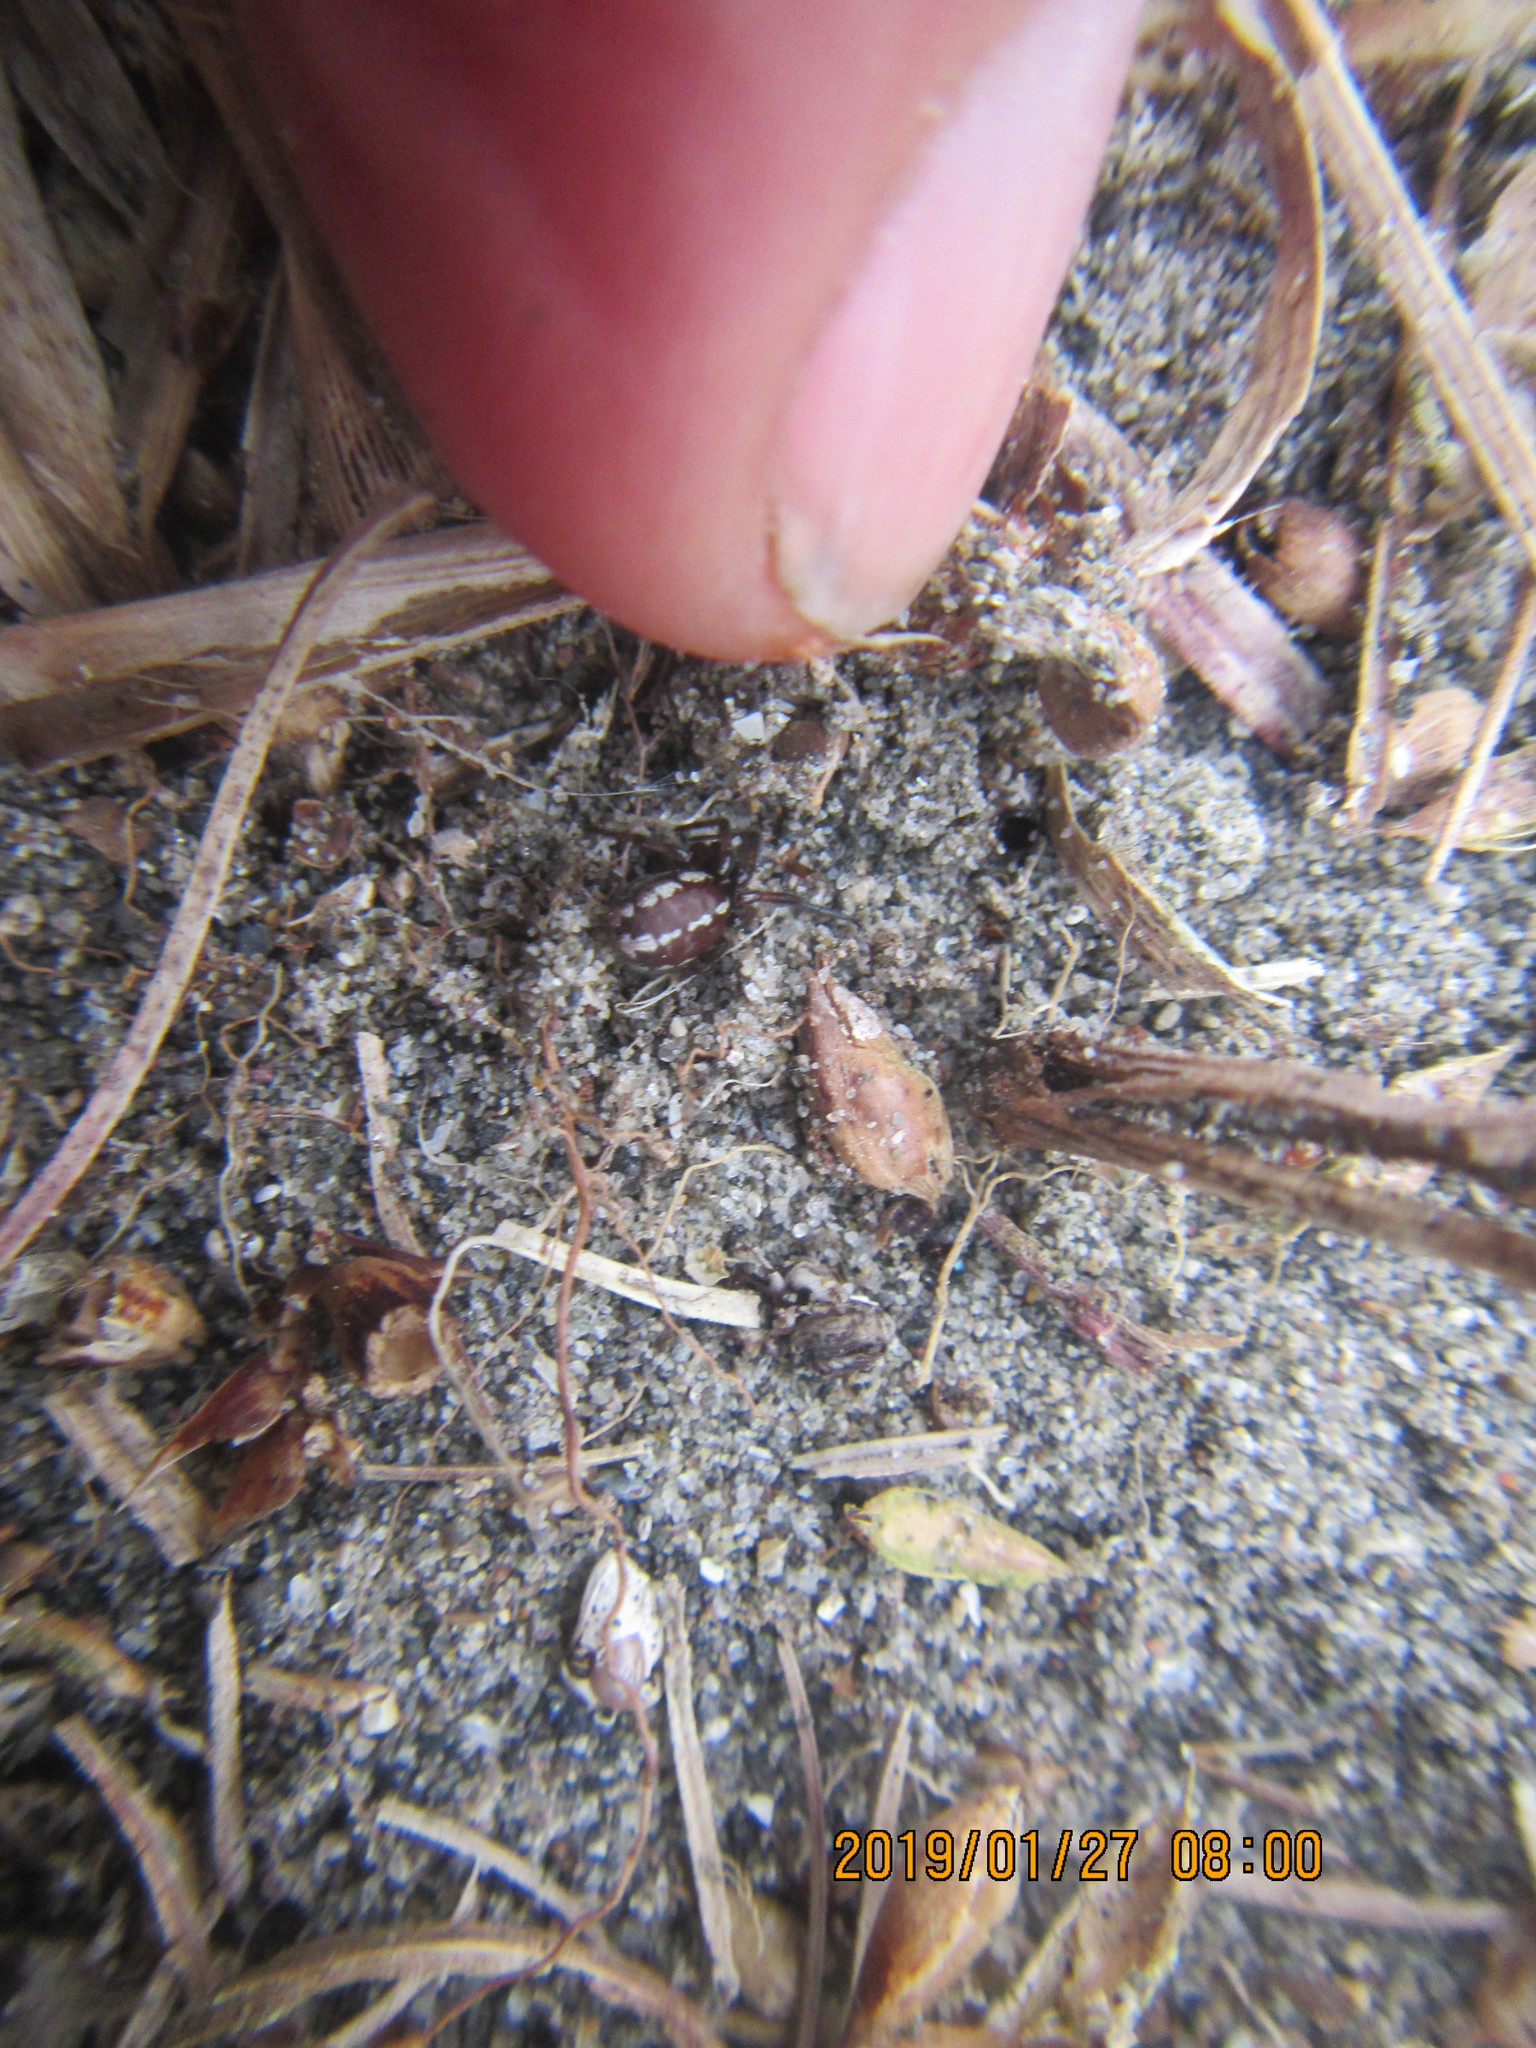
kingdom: Animalia
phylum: Arthropoda
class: Arachnida
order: Araneae
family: Theridiidae
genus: Steatoda
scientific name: Steatoda lepida
